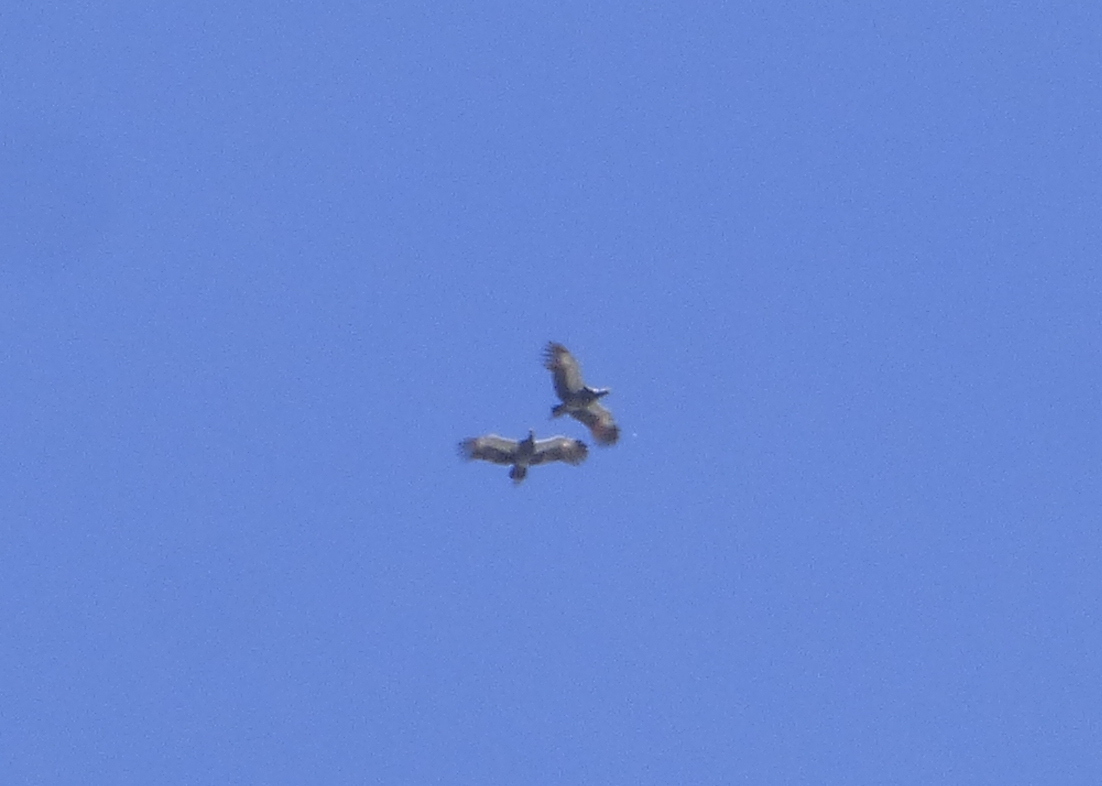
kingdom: Animalia
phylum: Chordata
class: Aves
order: Anseriformes
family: Anhimidae
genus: Chauna
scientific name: Chauna torquata
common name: Southern screamer
